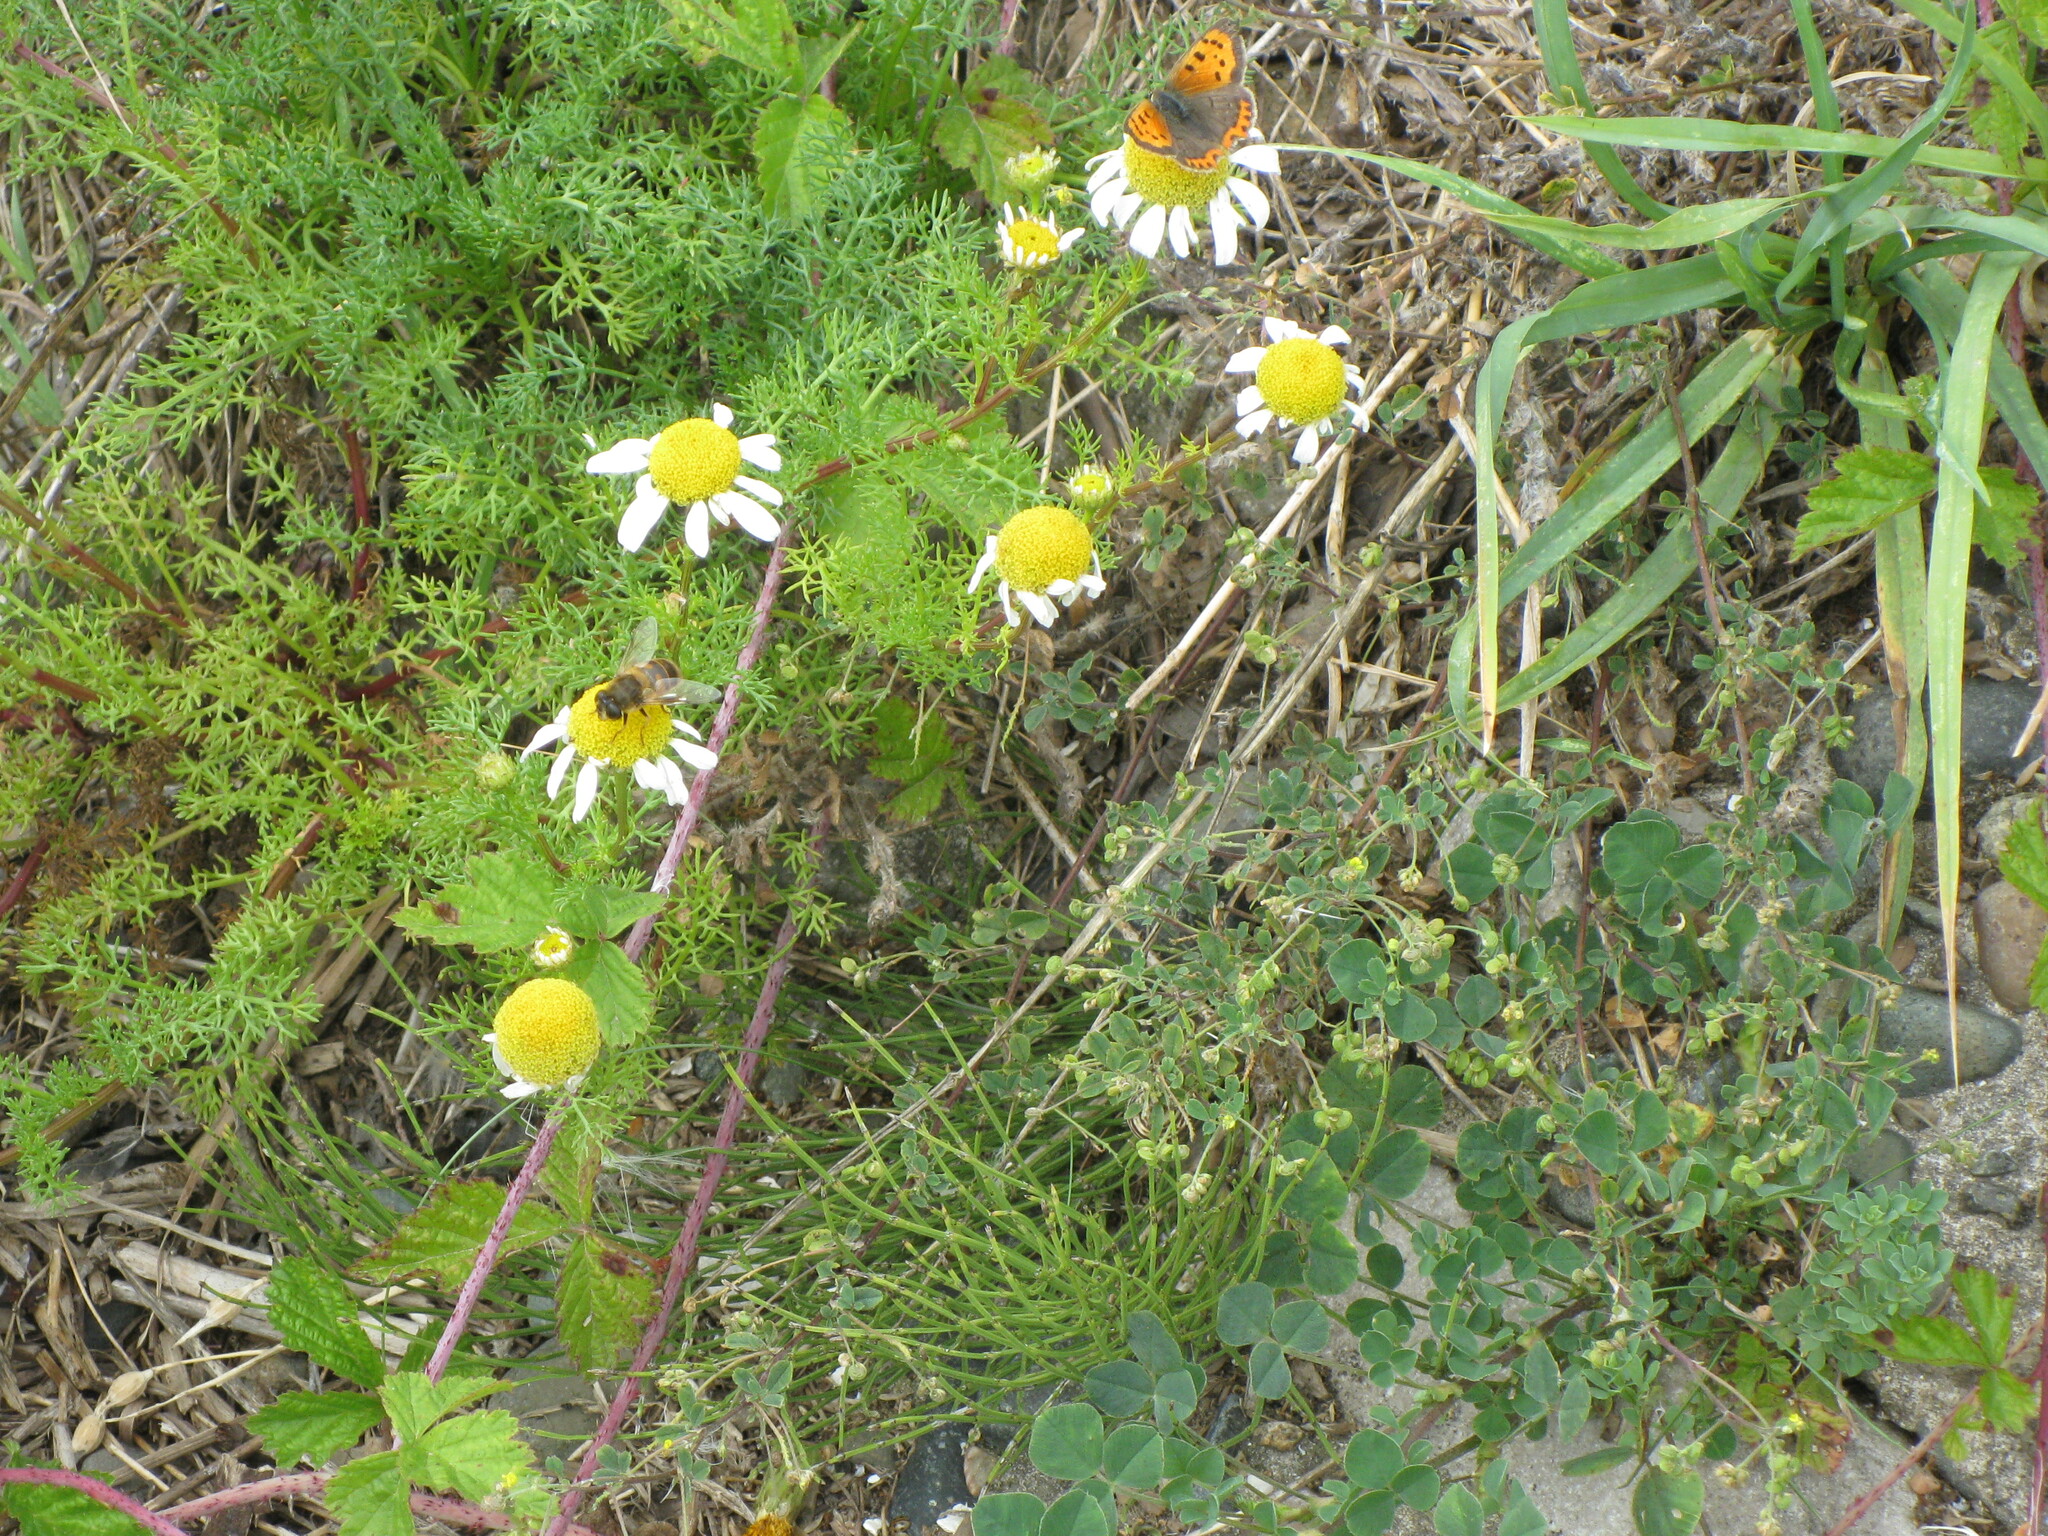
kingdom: Animalia
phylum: Arthropoda
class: Insecta
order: Lepidoptera
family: Lycaenidae
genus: Lycaena
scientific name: Lycaena phlaeas
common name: Small copper
